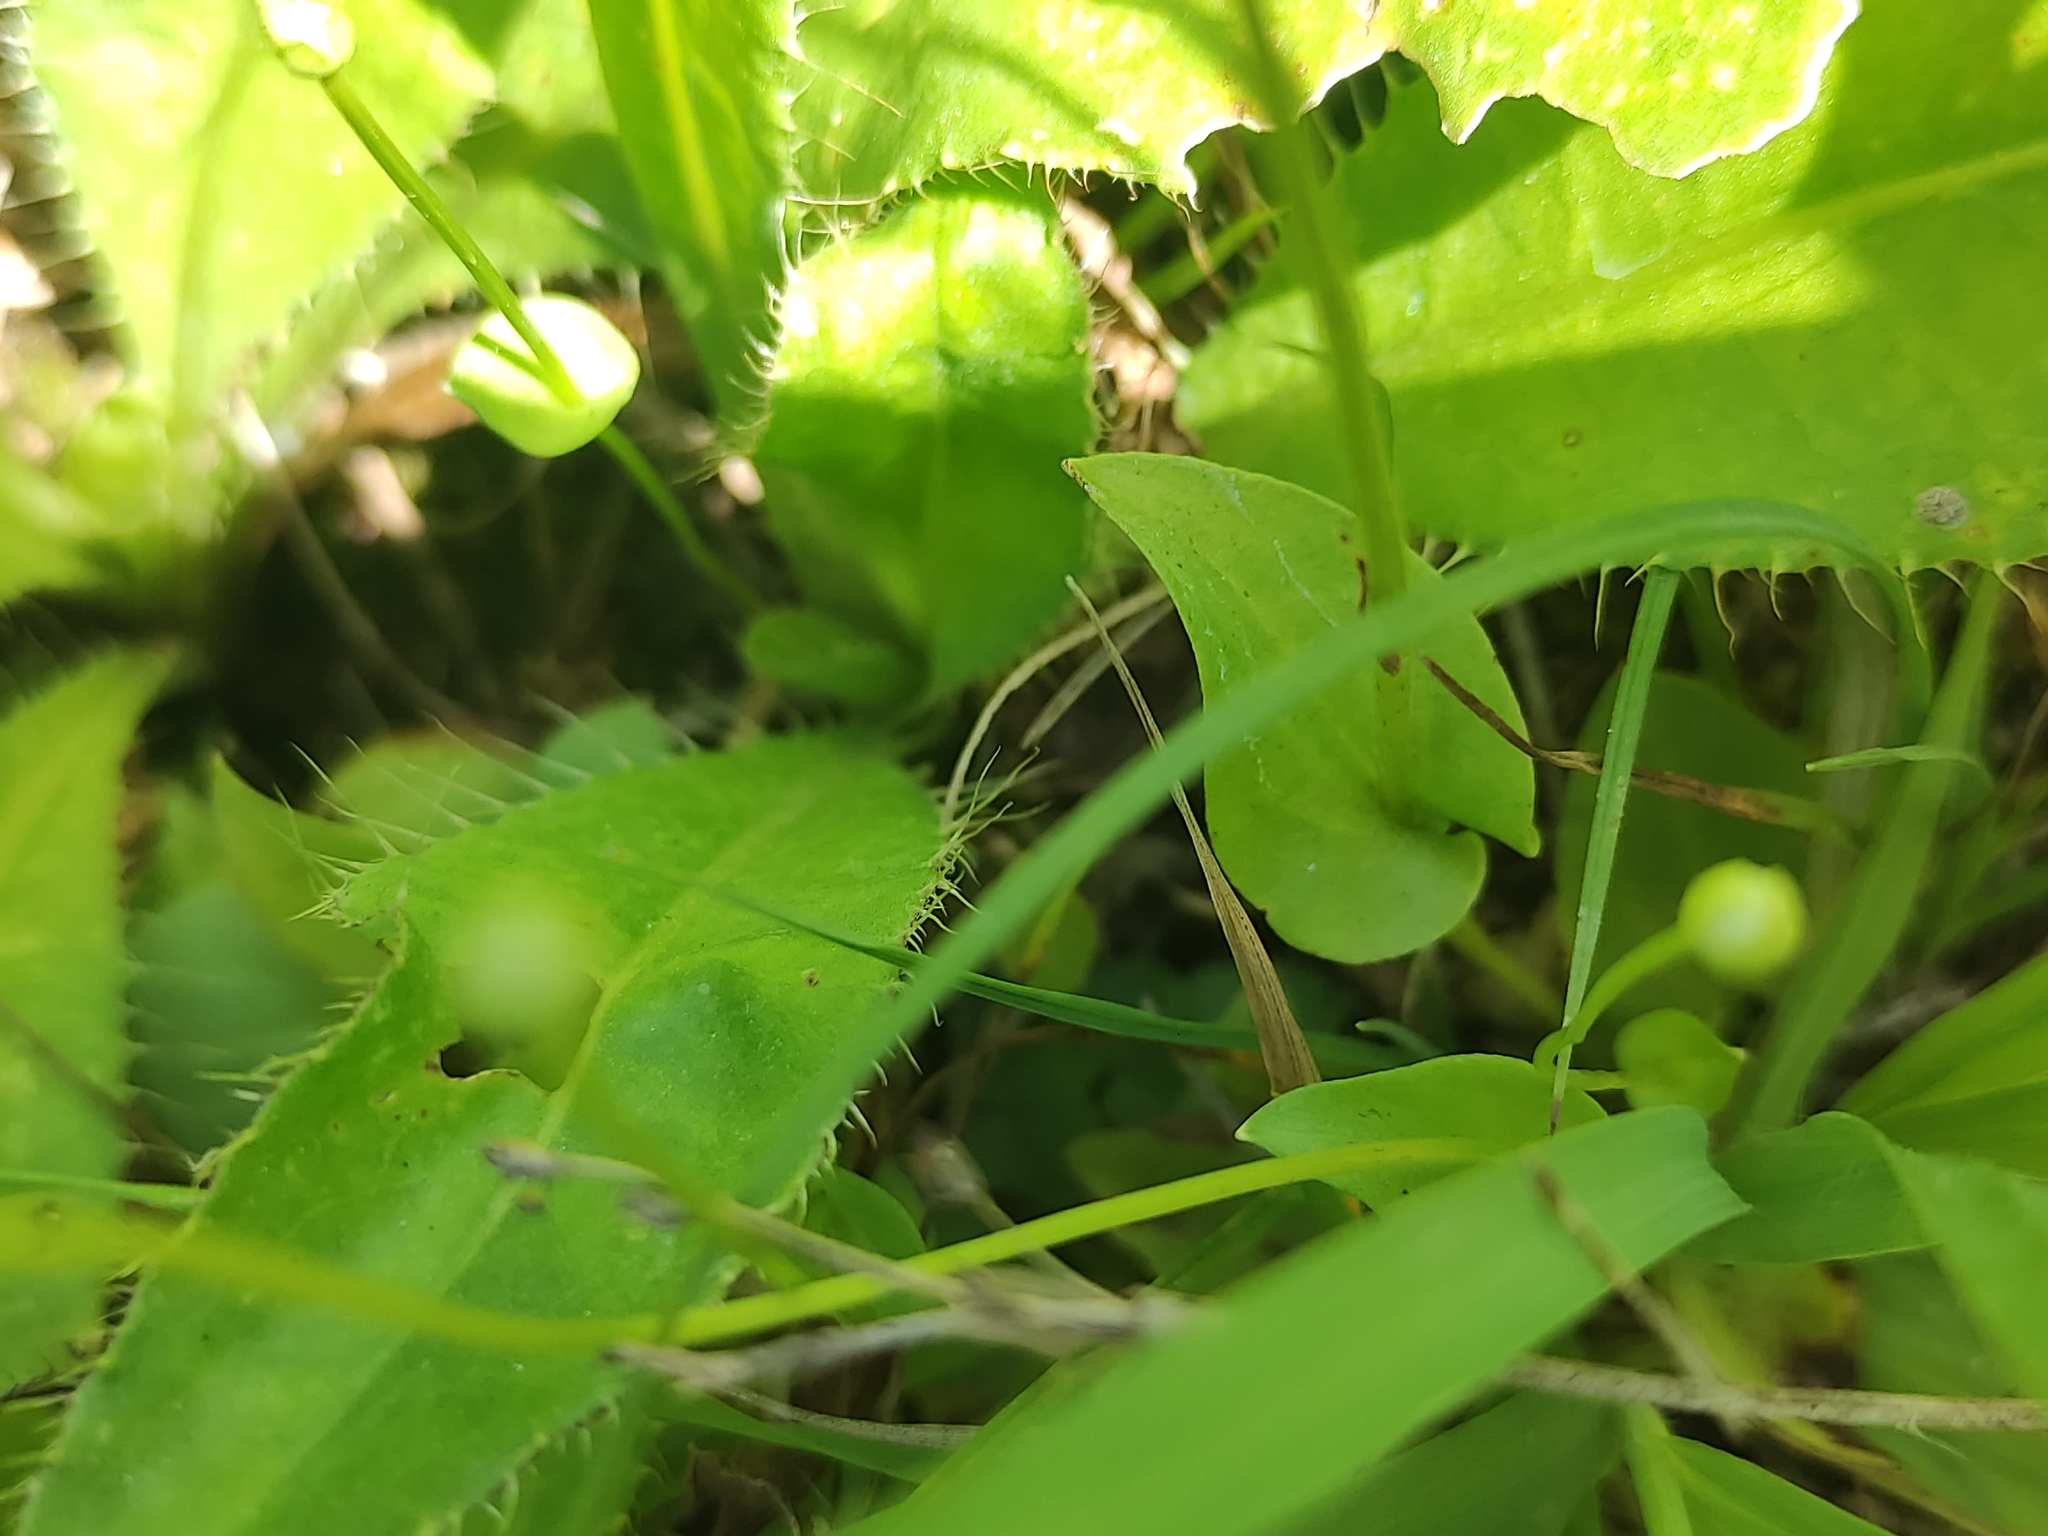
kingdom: Plantae
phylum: Tracheophyta
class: Magnoliopsida
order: Celastrales
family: Parnassiaceae
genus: Parnassia
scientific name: Parnassia palustris
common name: Grass-of-parnassus
